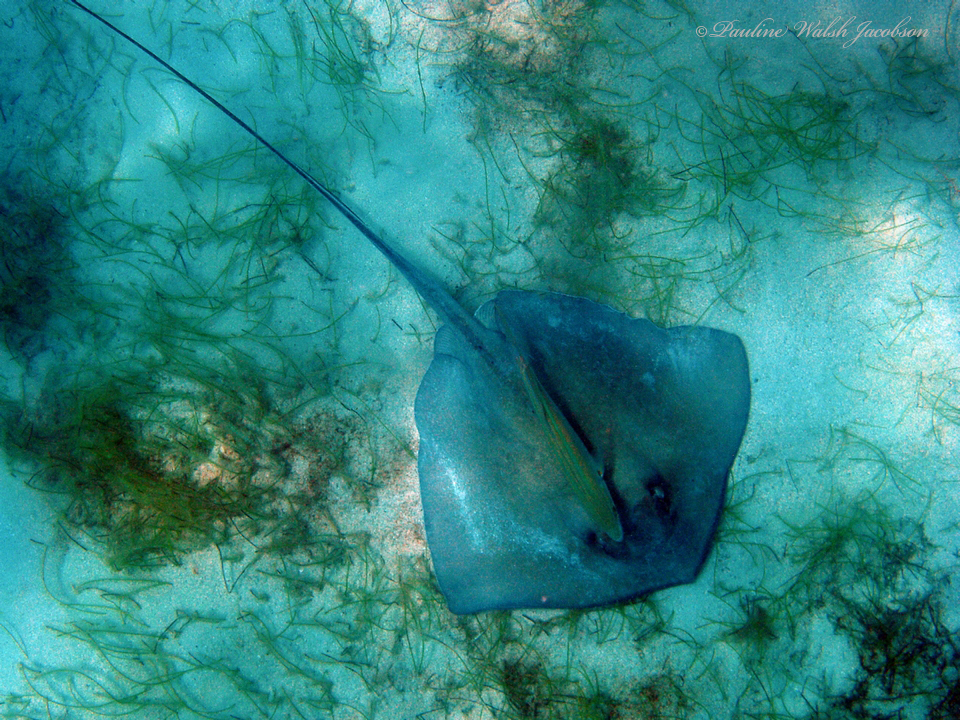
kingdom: Animalia
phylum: Chordata
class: Elasmobranchii
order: Myliobatiformes
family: Dasyatidae
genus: Hypanus
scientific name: Hypanus americanus
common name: Southern stingray
